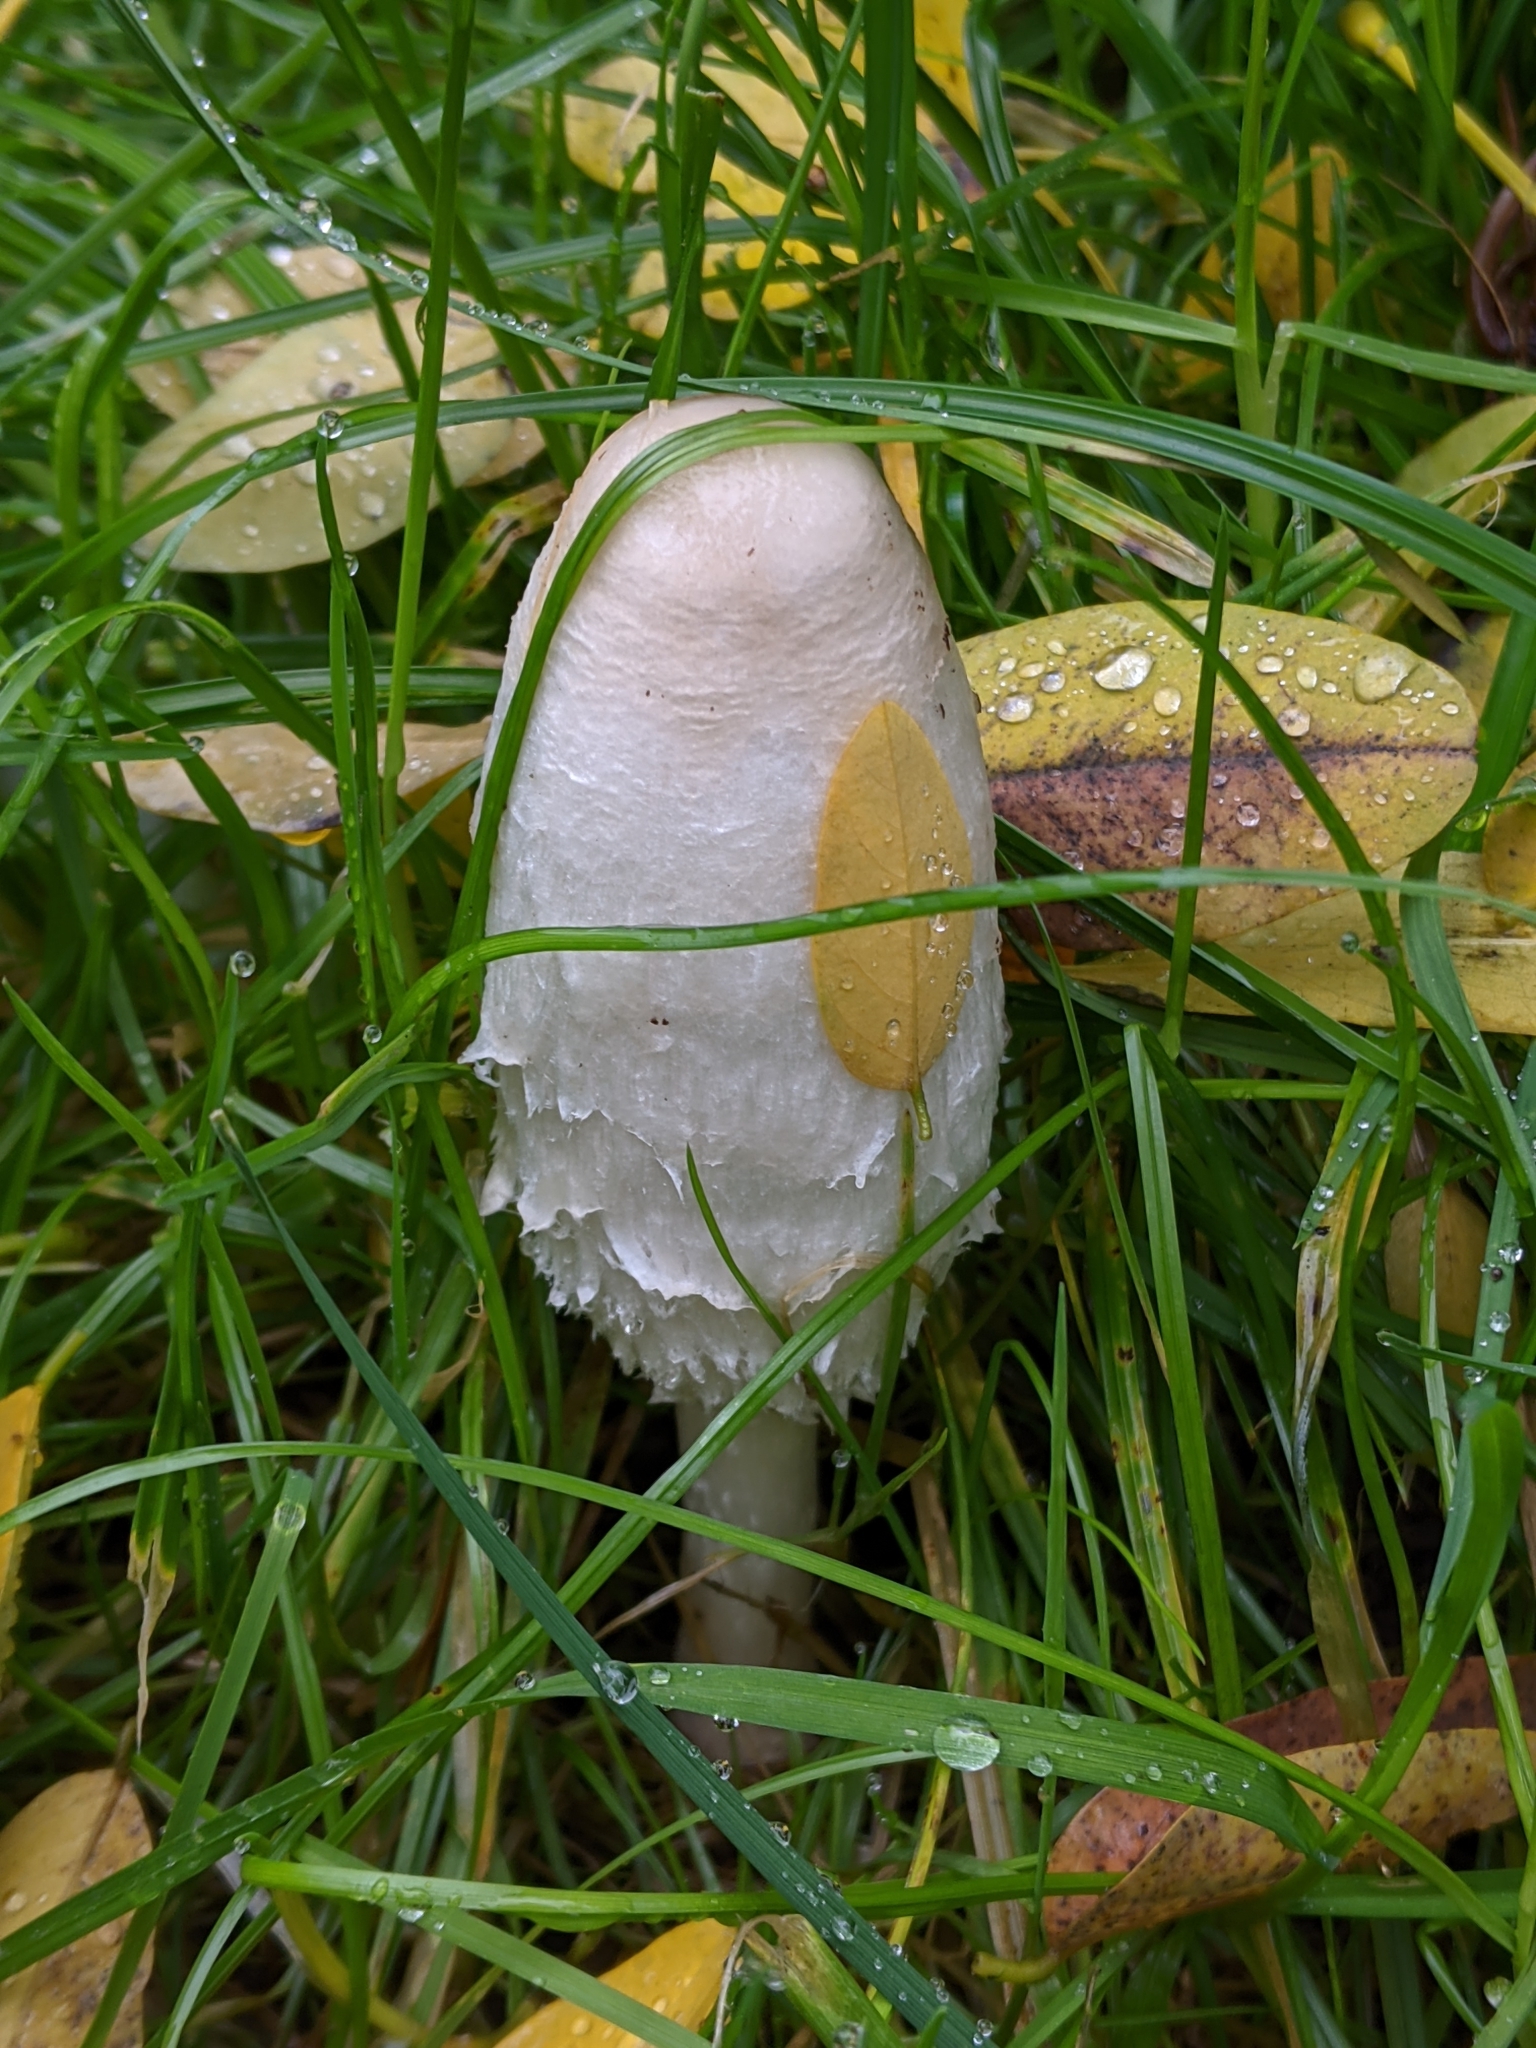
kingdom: Fungi
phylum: Basidiomycota
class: Agaricomycetes
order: Agaricales
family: Agaricaceae
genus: Coprinus
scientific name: Coprinus comatus
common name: Lawyer's wig
